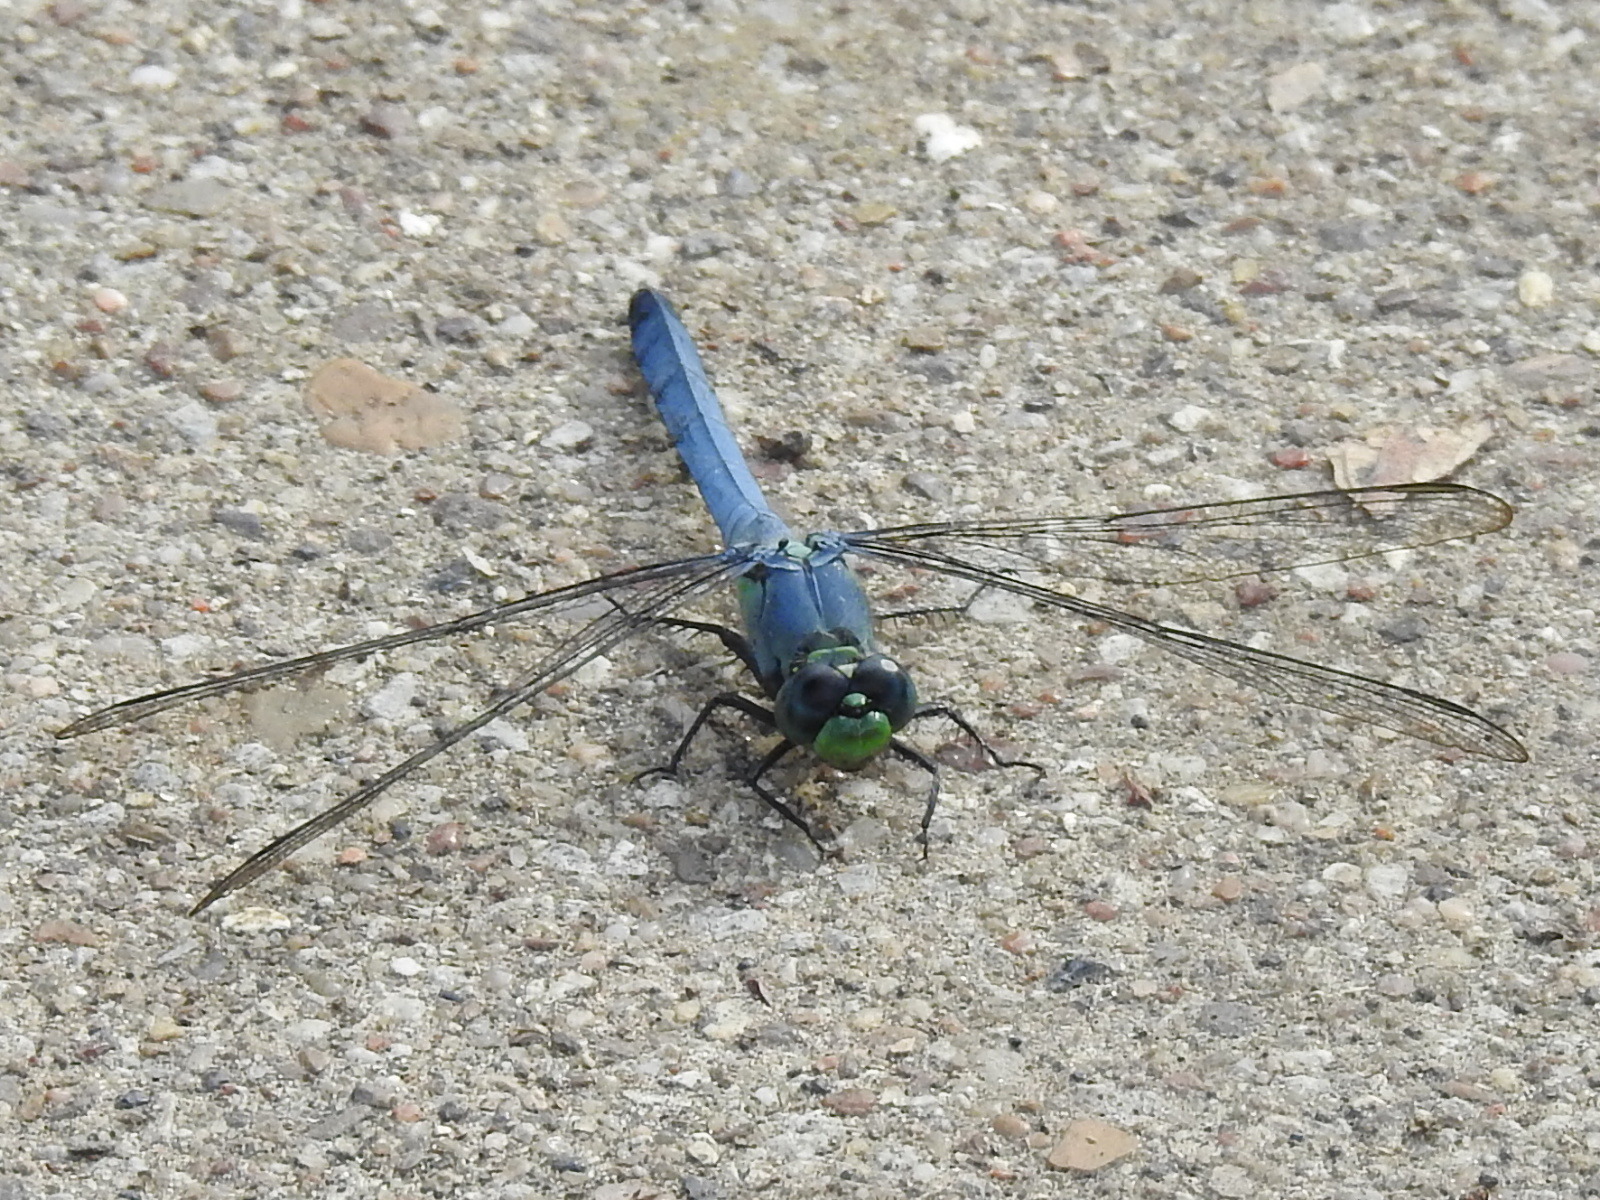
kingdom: Animalia
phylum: Arthropoda
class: Insecta
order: Odonata
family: Libellulidae
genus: Erythemis
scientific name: Erythemis simplicicollis
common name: Eastern pondhawk
